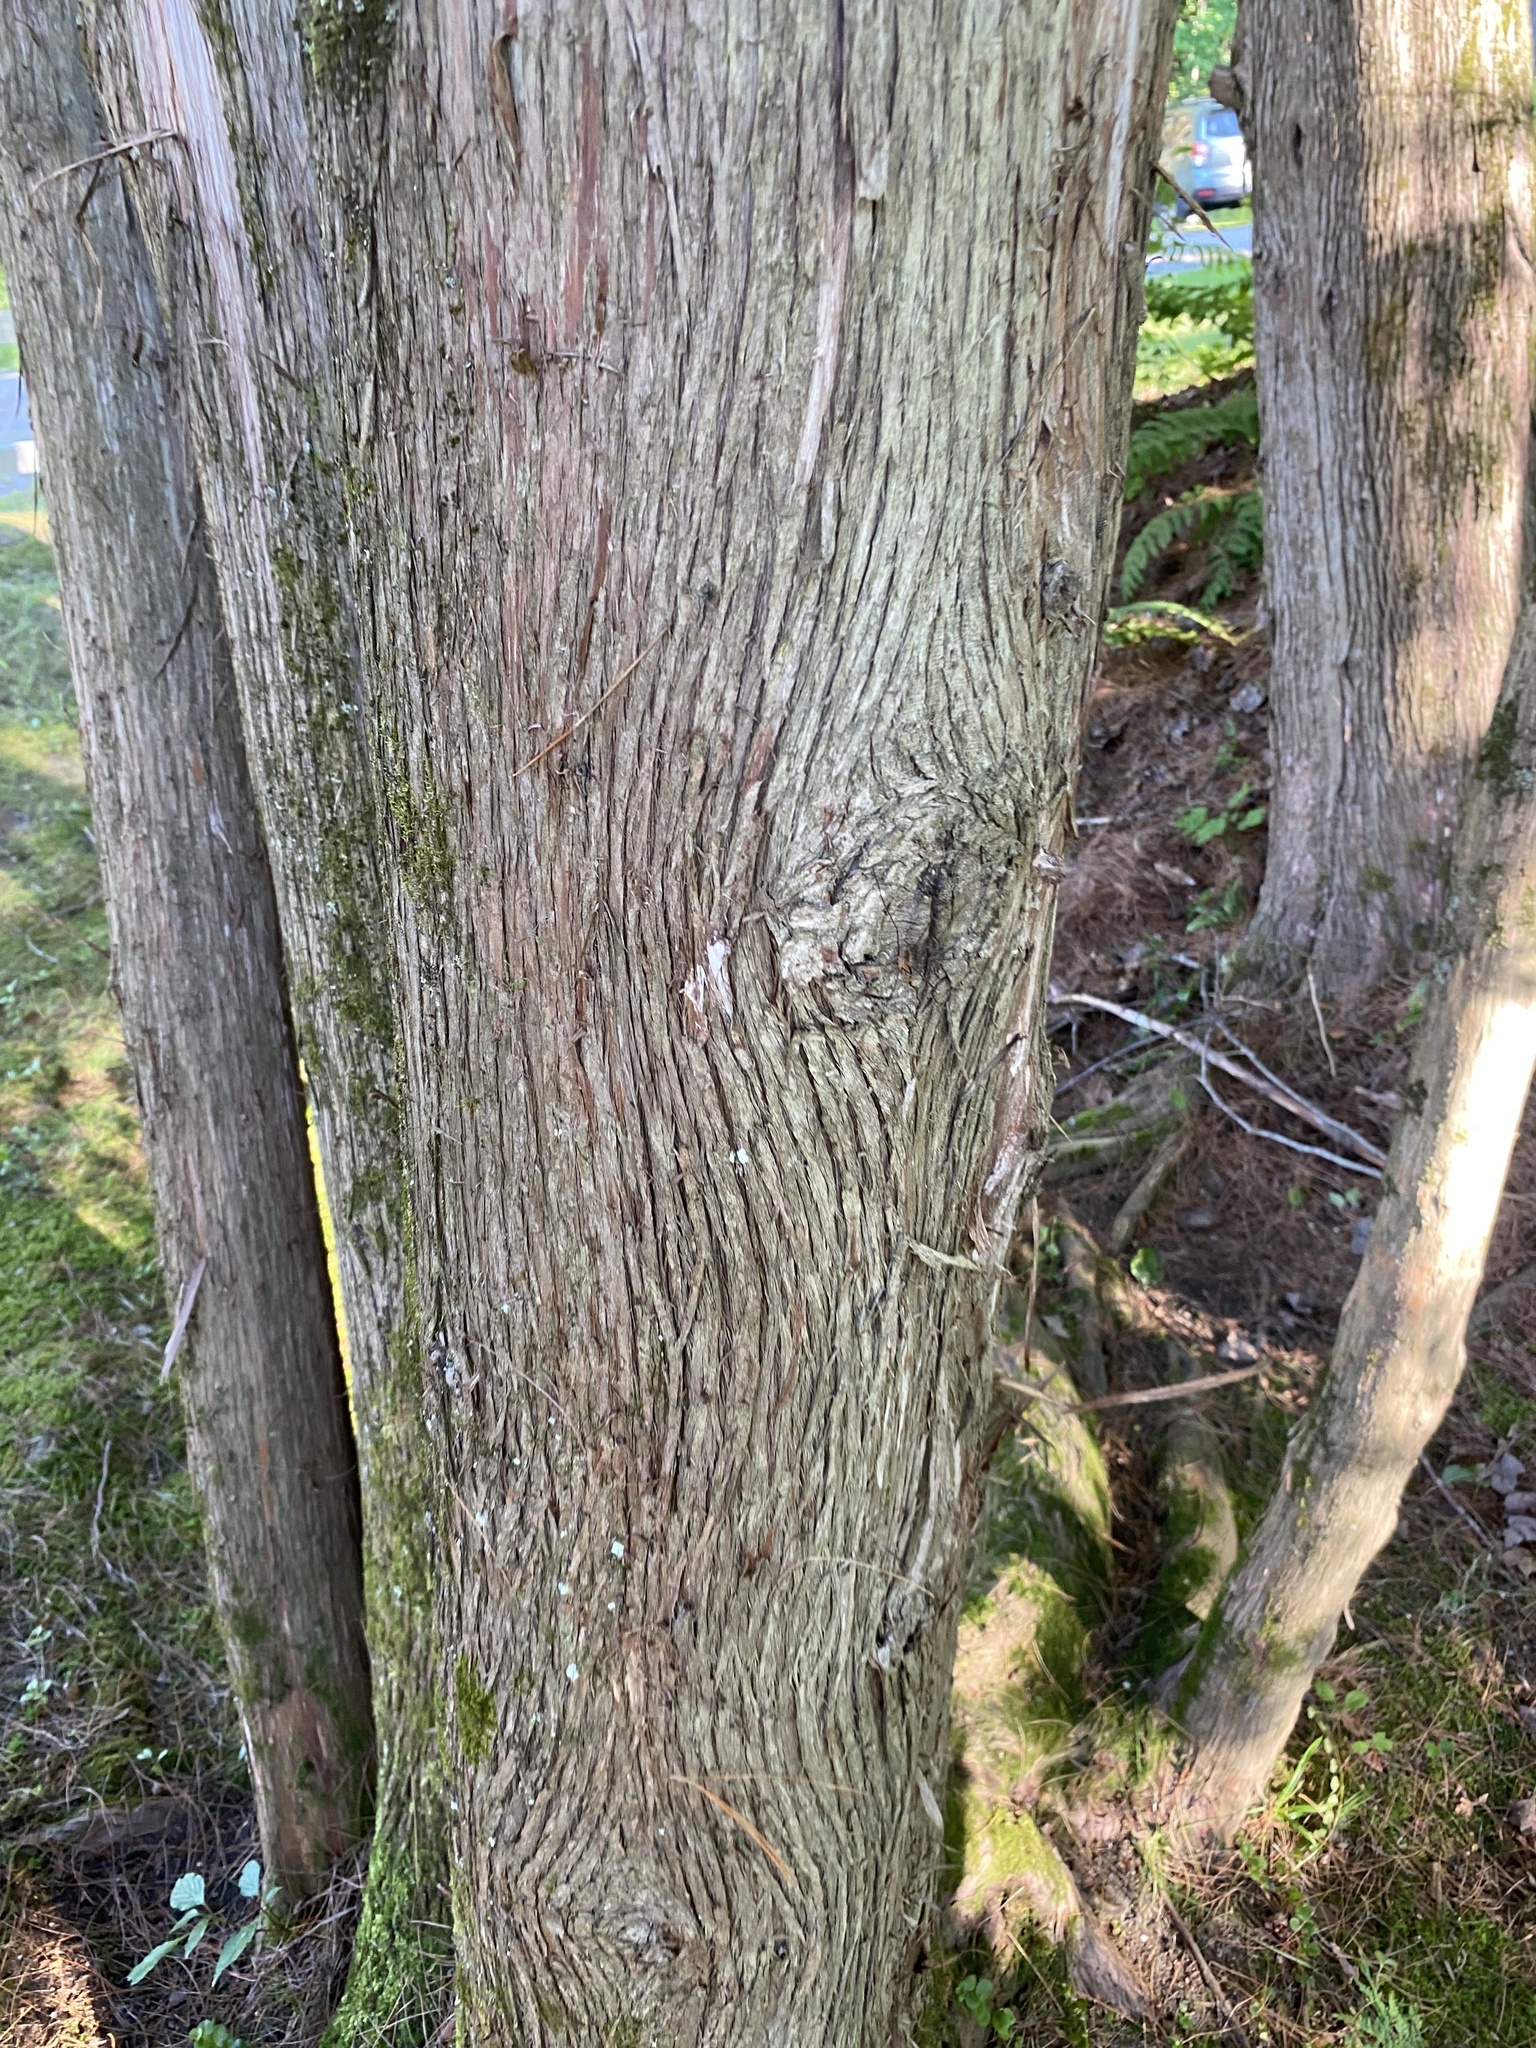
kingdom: Plantae
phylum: Tracheophyta
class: Pinopsida
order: Pinales
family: Cupressaceae
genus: Thuja
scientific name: Thuja occidentalis
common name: Northern white-cedar
